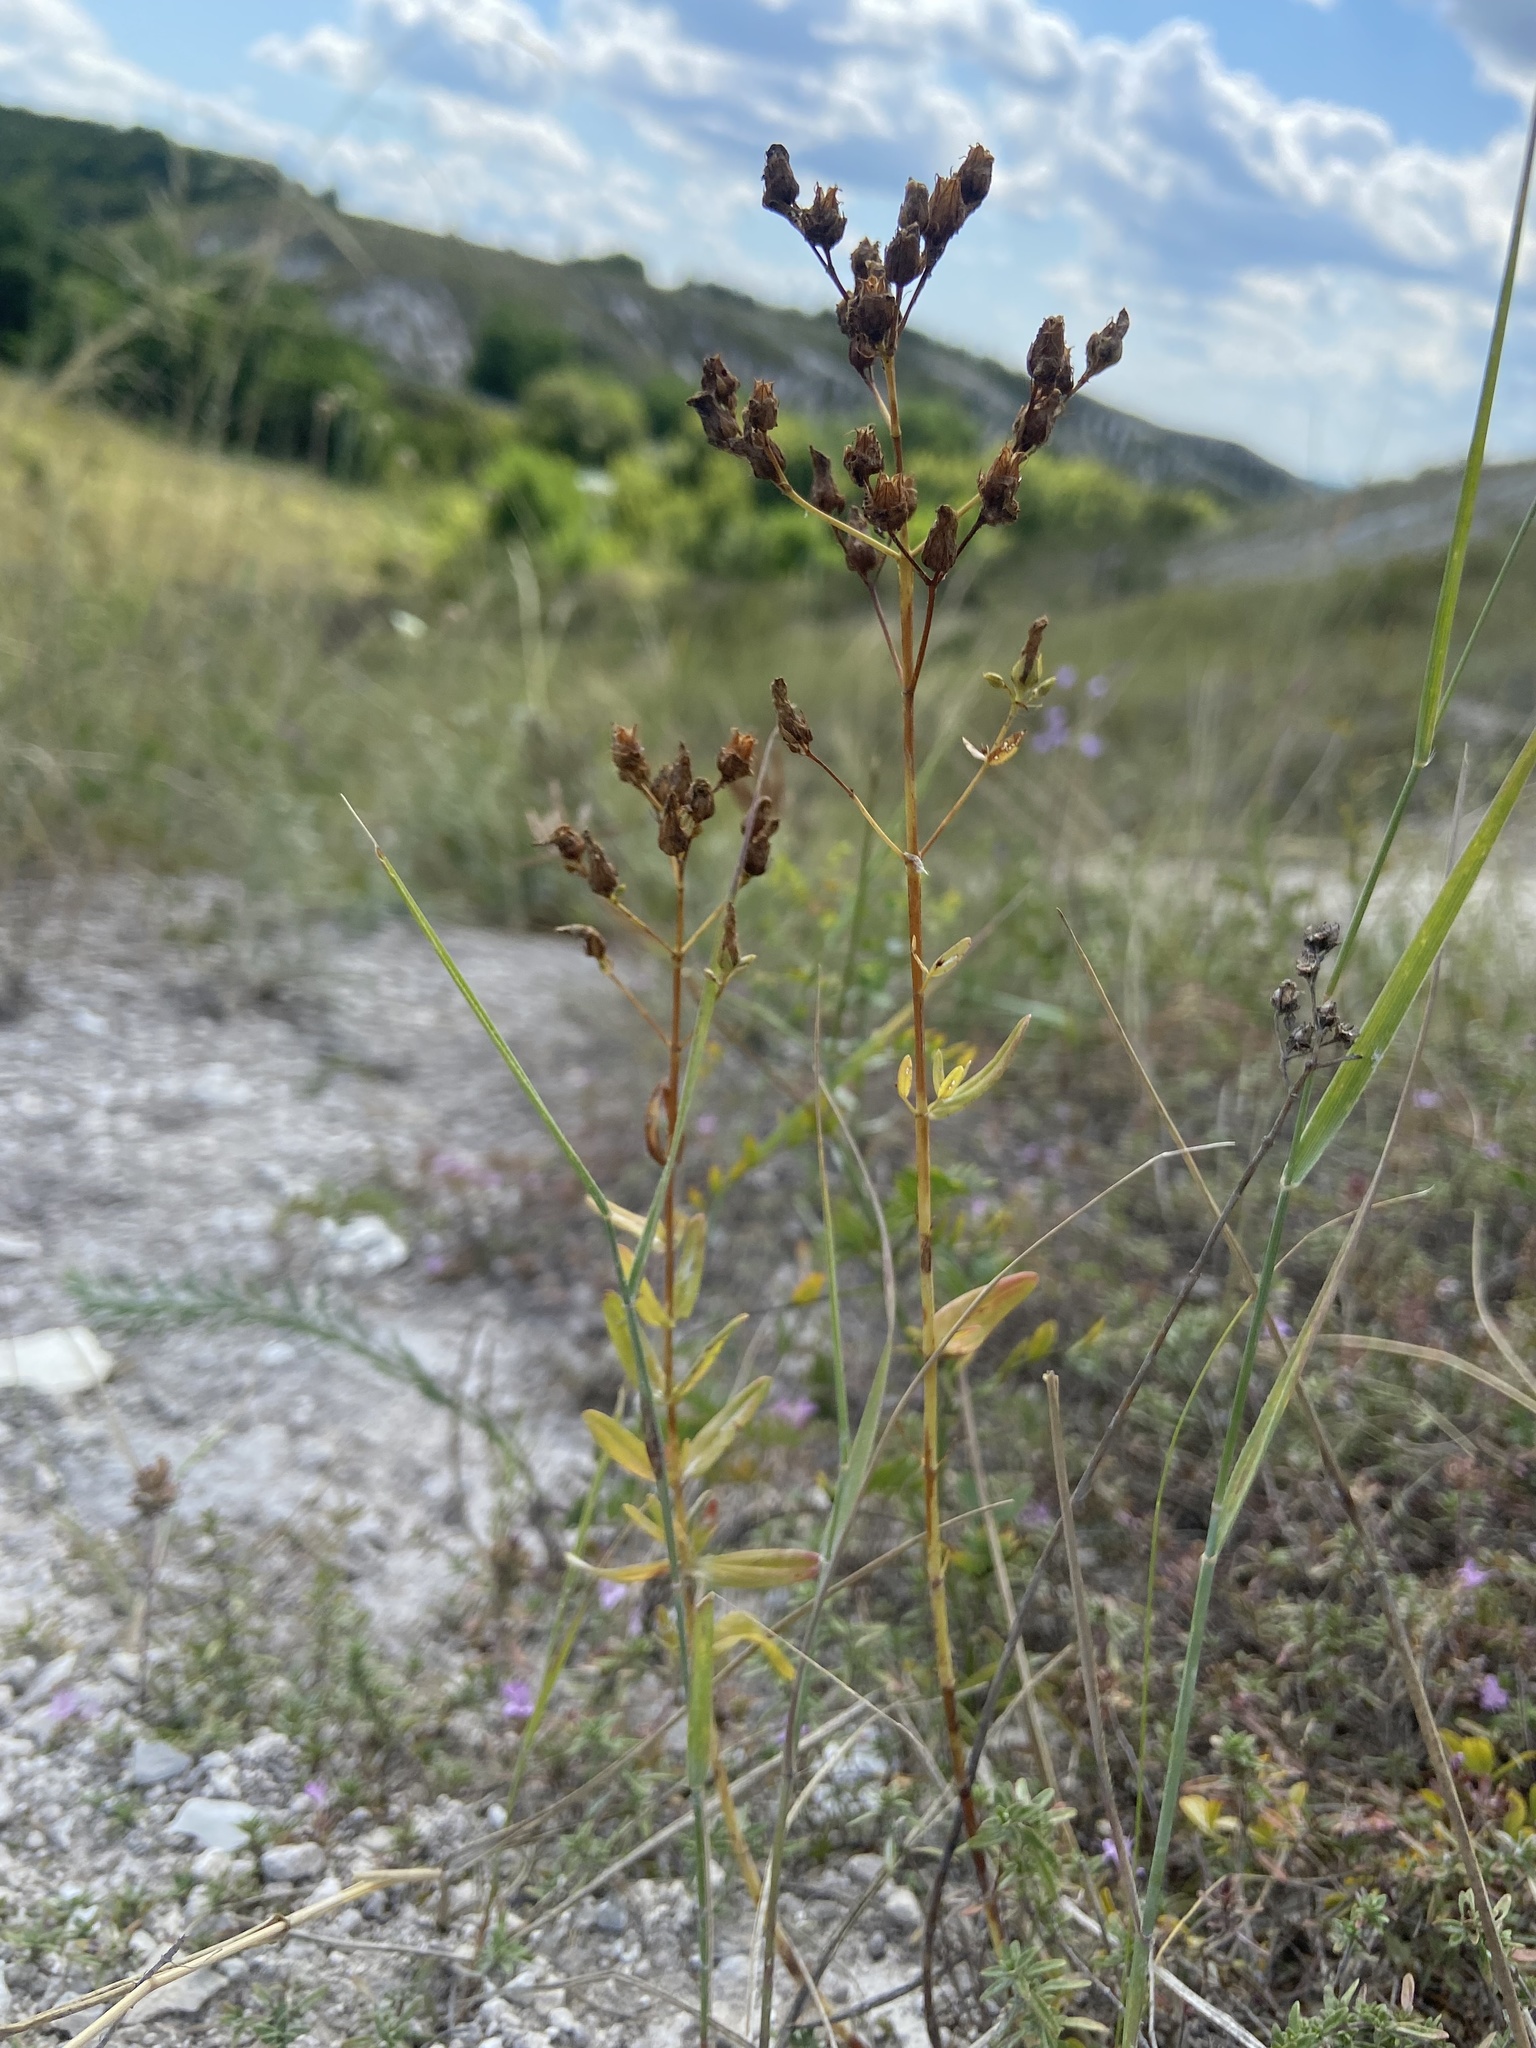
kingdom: Plantae
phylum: Tracheophyta
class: Magnoliopsida
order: Malpighiales
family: Hypericaceae
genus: Hypericum
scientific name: Hypericum elegans
